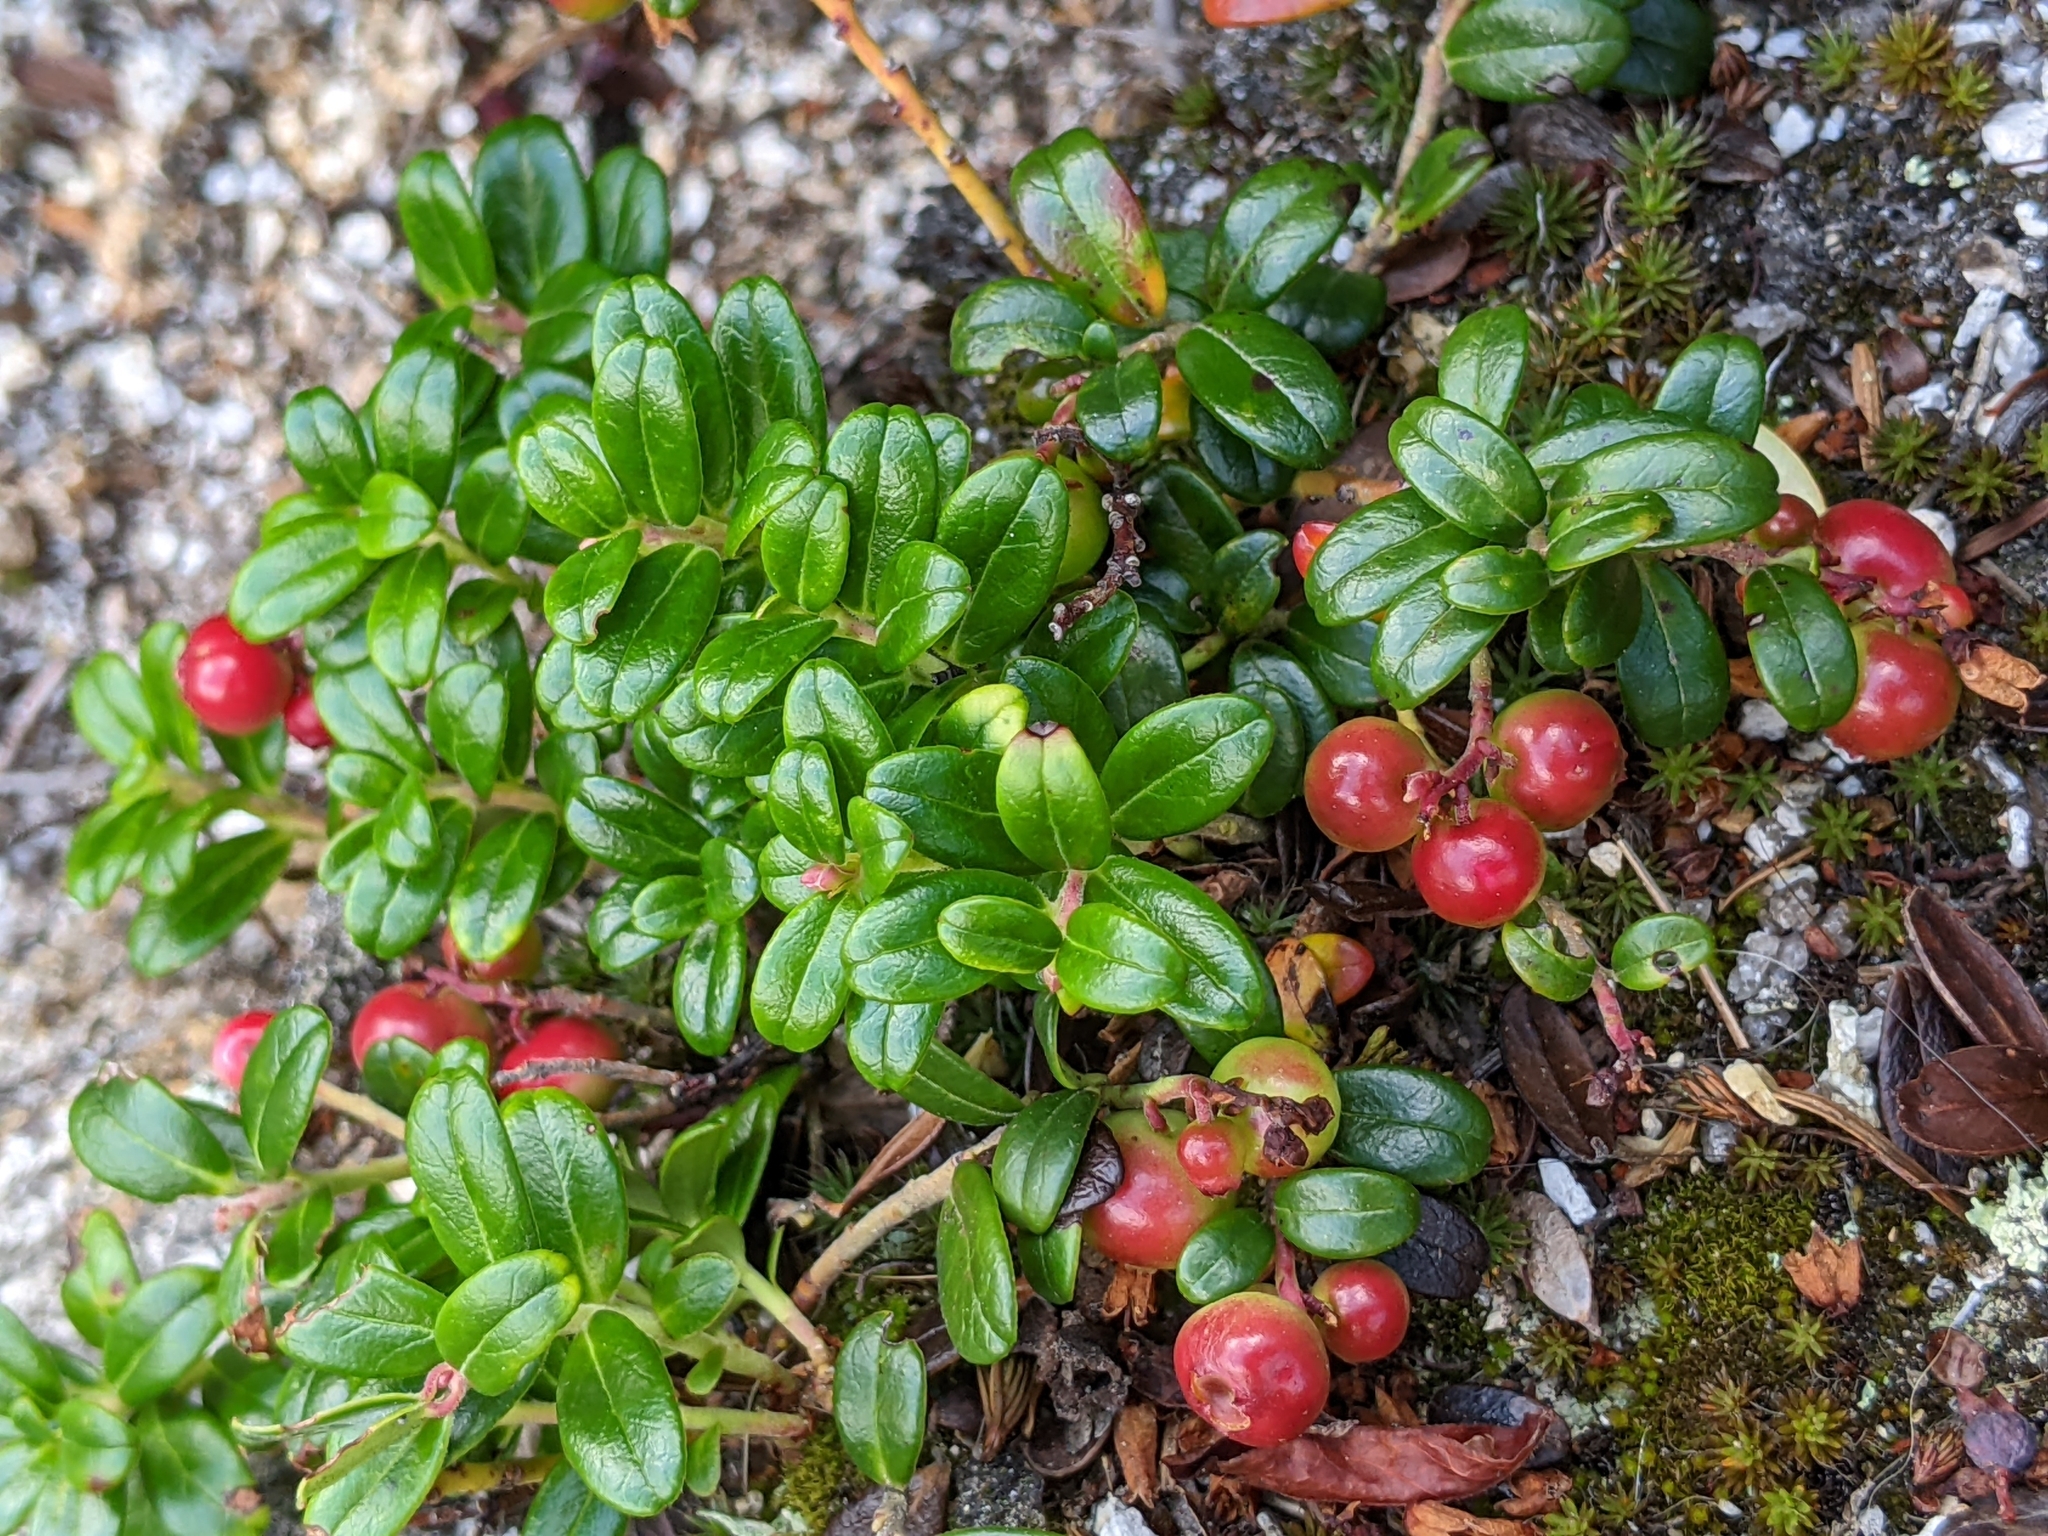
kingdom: Plantae
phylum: Tracheophyta
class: Magnoliopsida
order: Ericales
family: Ericaceae
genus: Vaccinium
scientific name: Vaccinium vitis-idaea
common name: Cowberry
